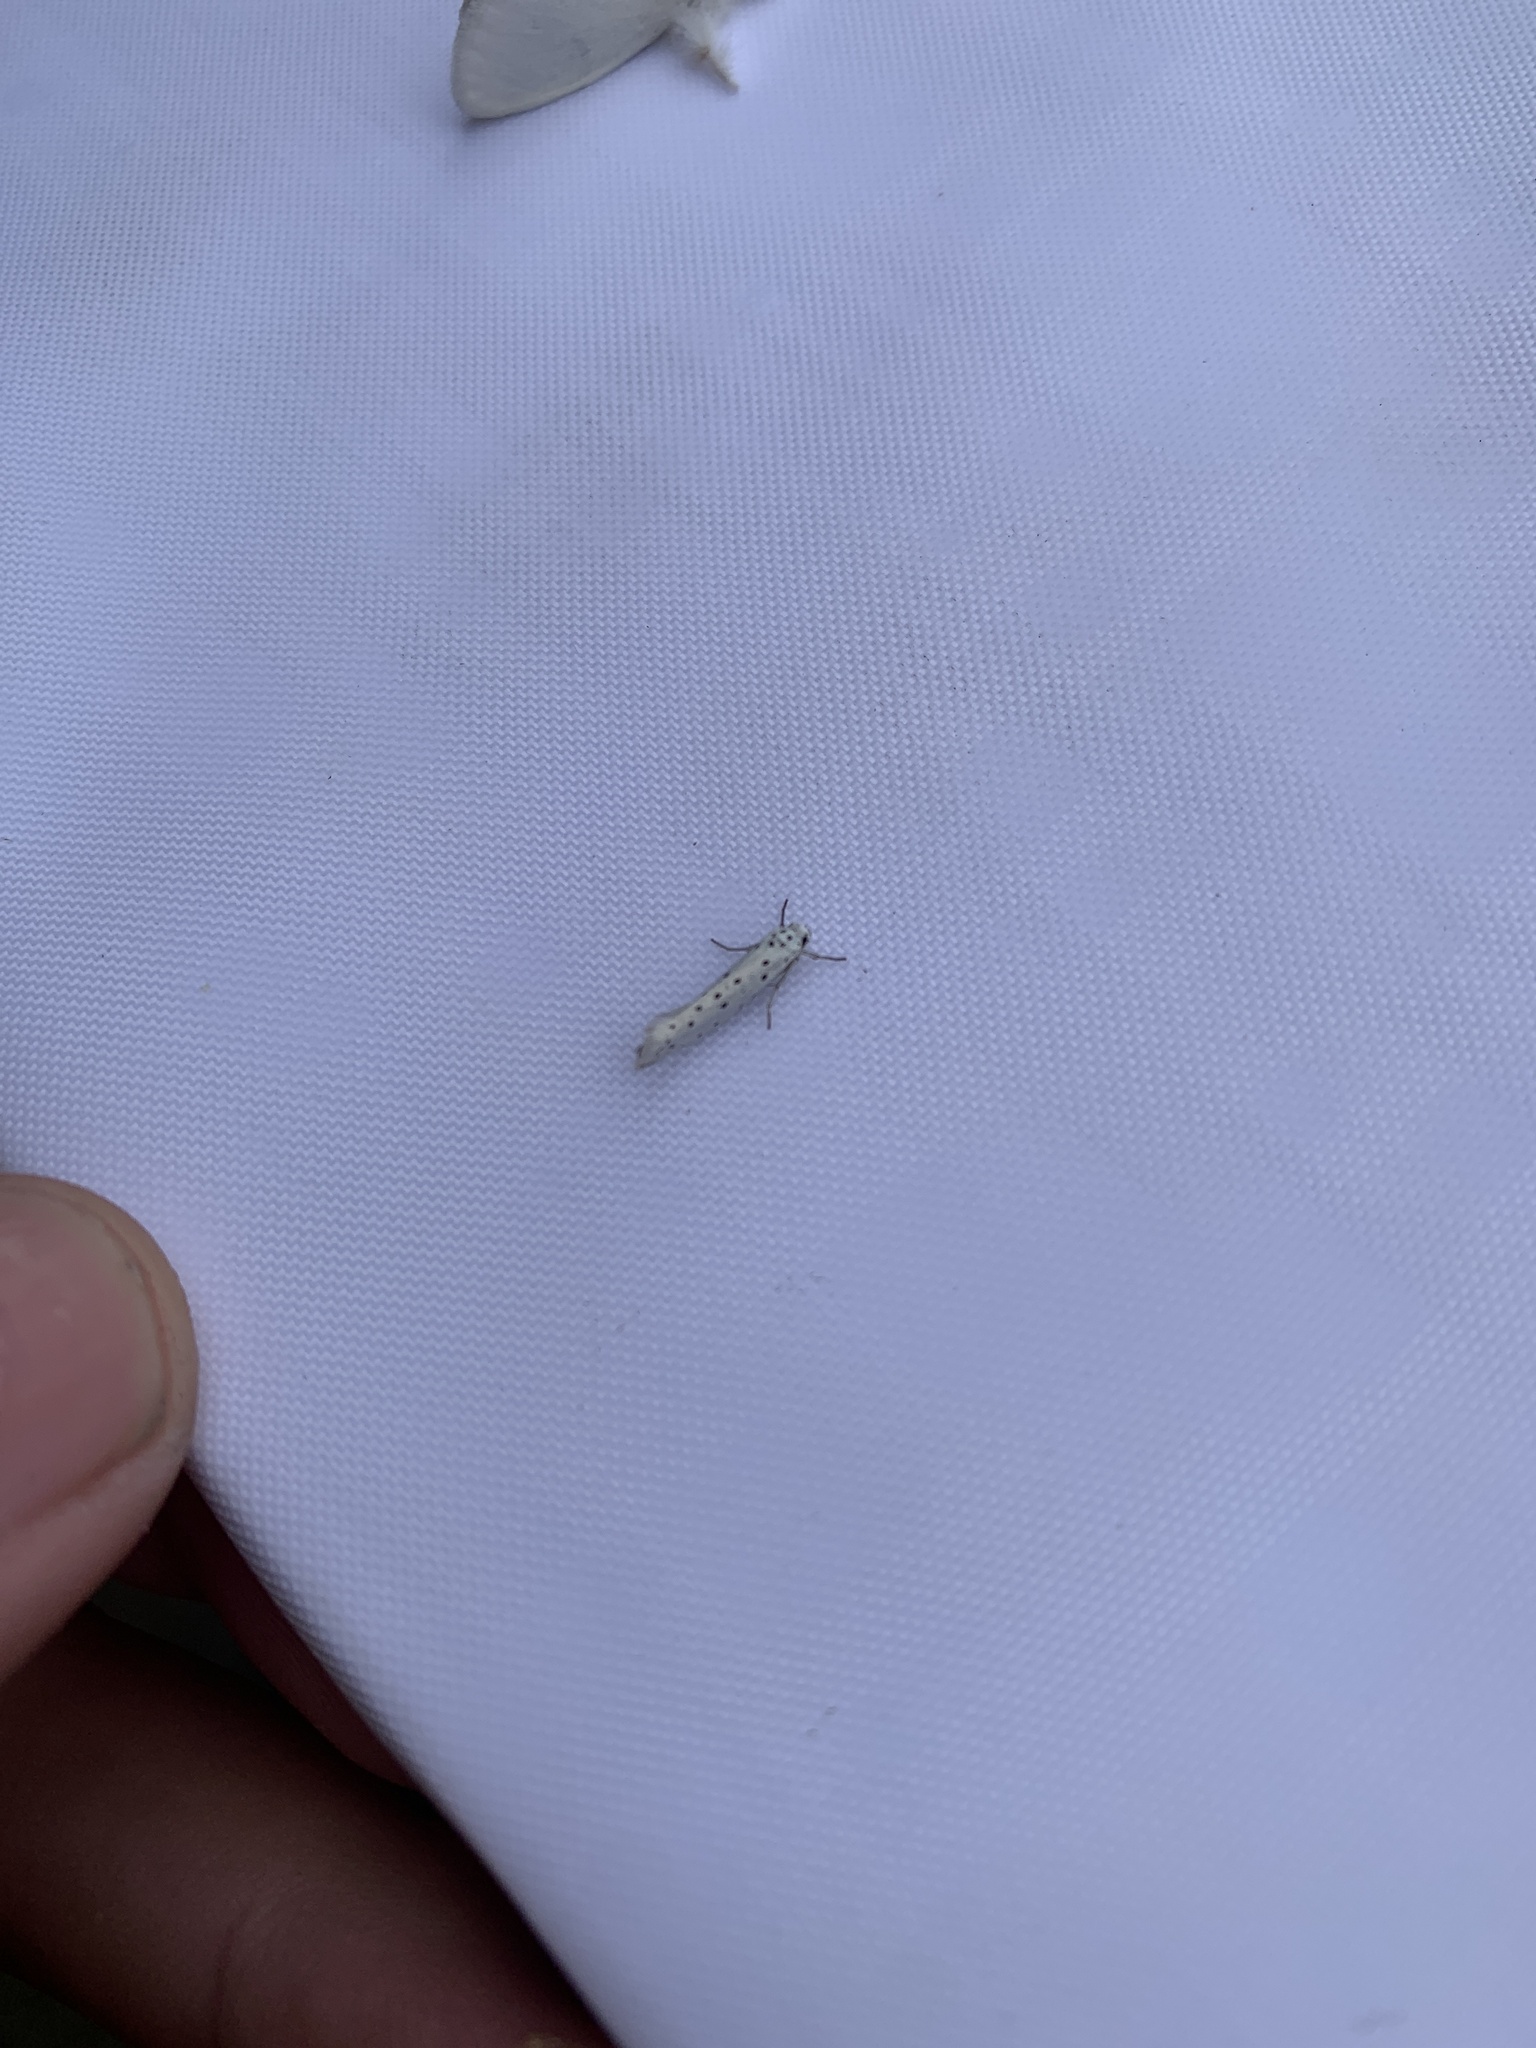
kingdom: Animalia
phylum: Arthropoda
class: Insecta
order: Lepidoptera
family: Yponomeutidae
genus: Yponomeuta
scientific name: Yponomeuta evonymella
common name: Bird-cherry ermine
